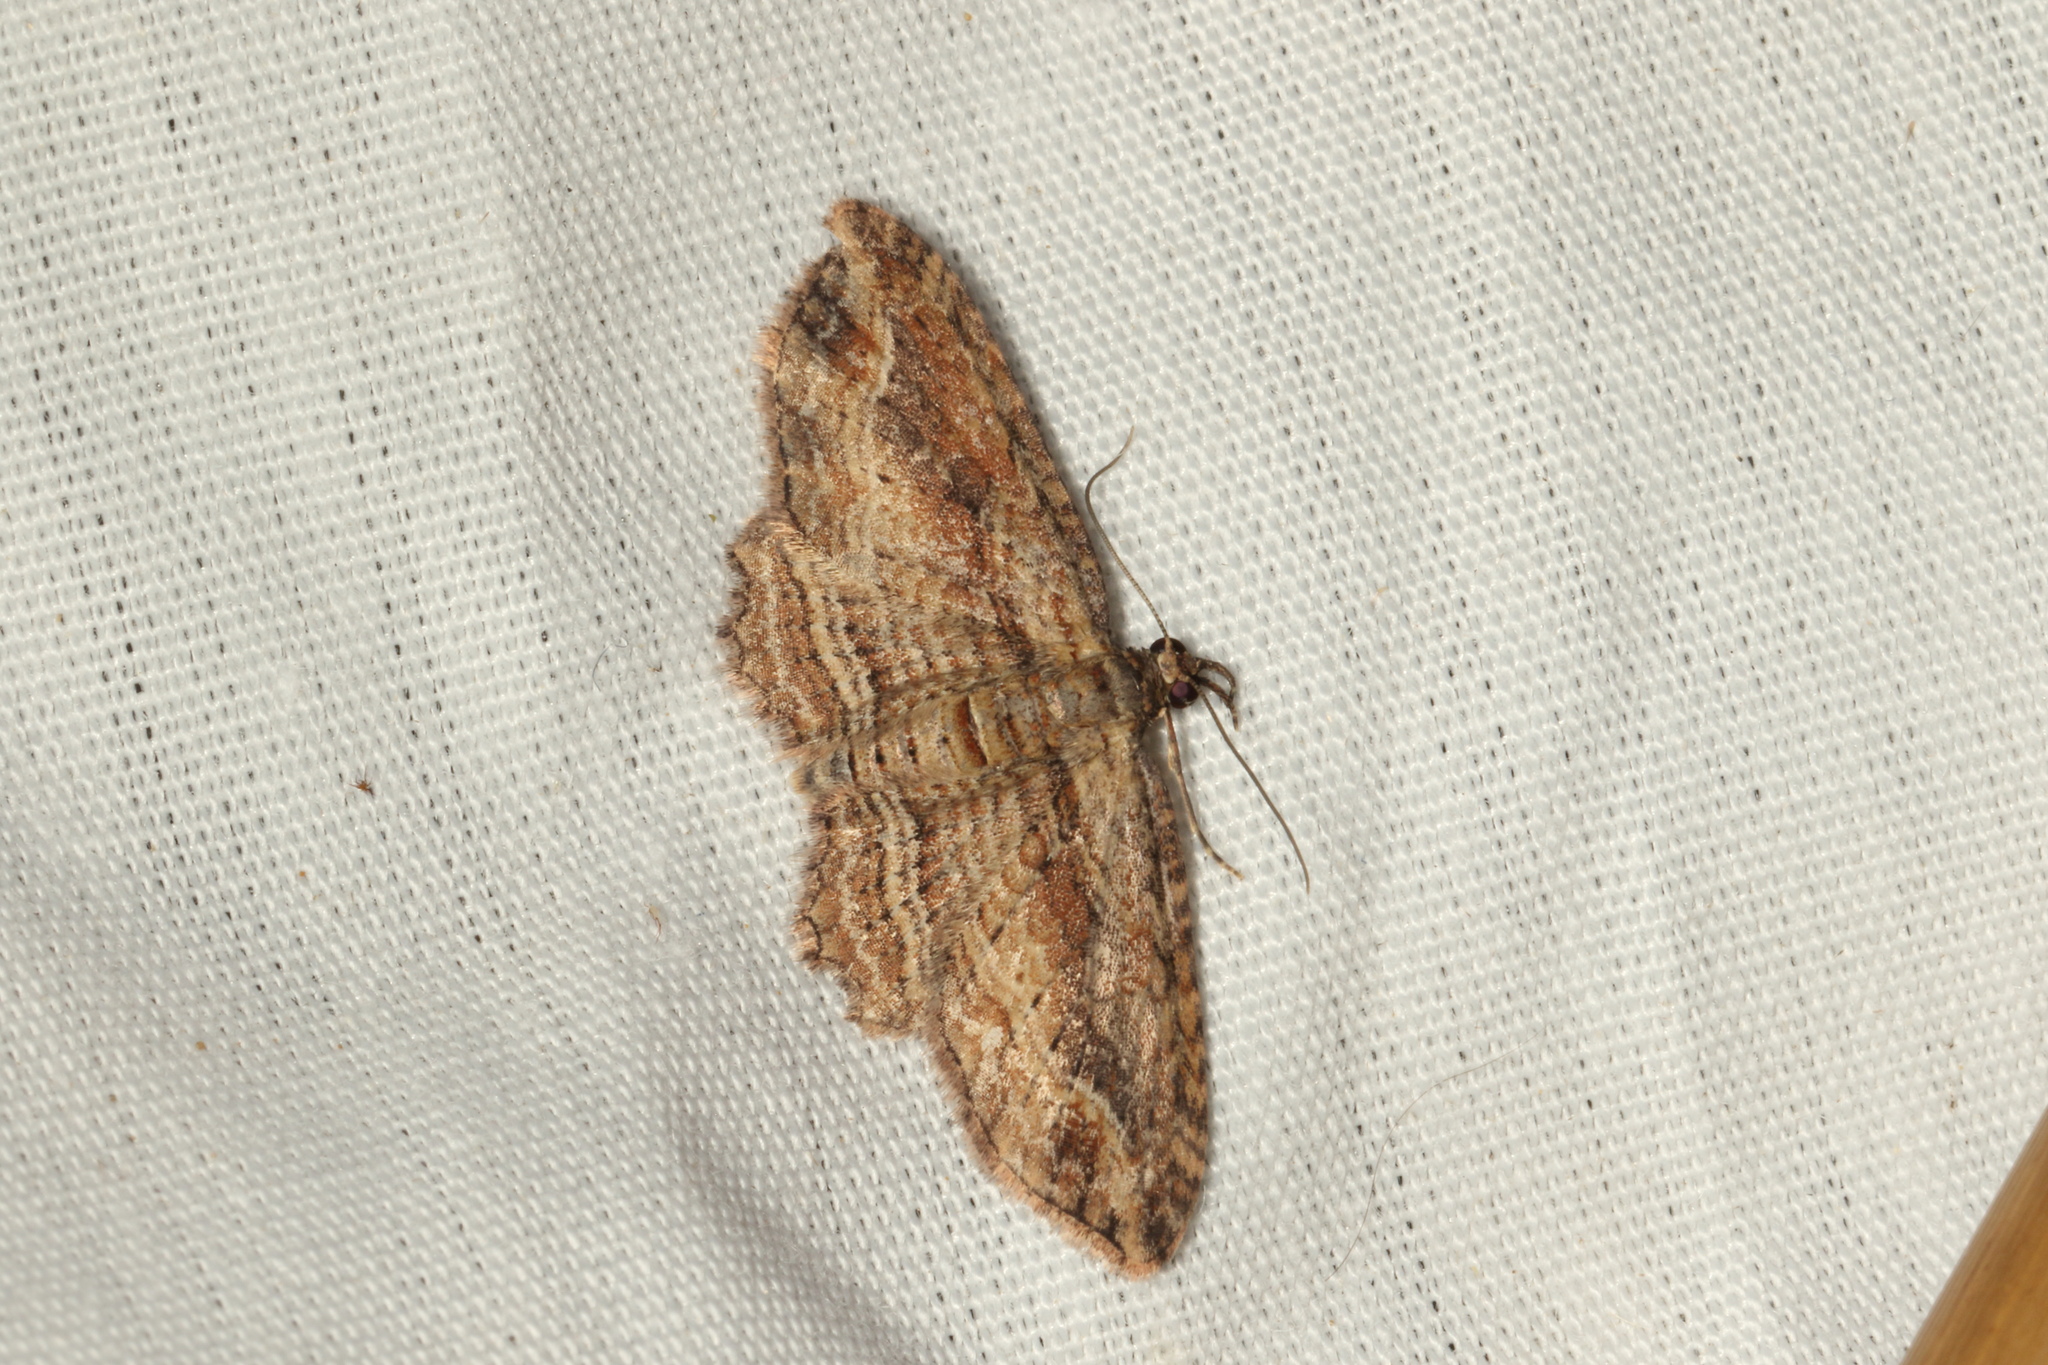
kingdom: Animalia
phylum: Arthropoda
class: Insecta
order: Lepidoptera
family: Geometridae
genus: Chloroclystis
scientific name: Chloroclystis filata
